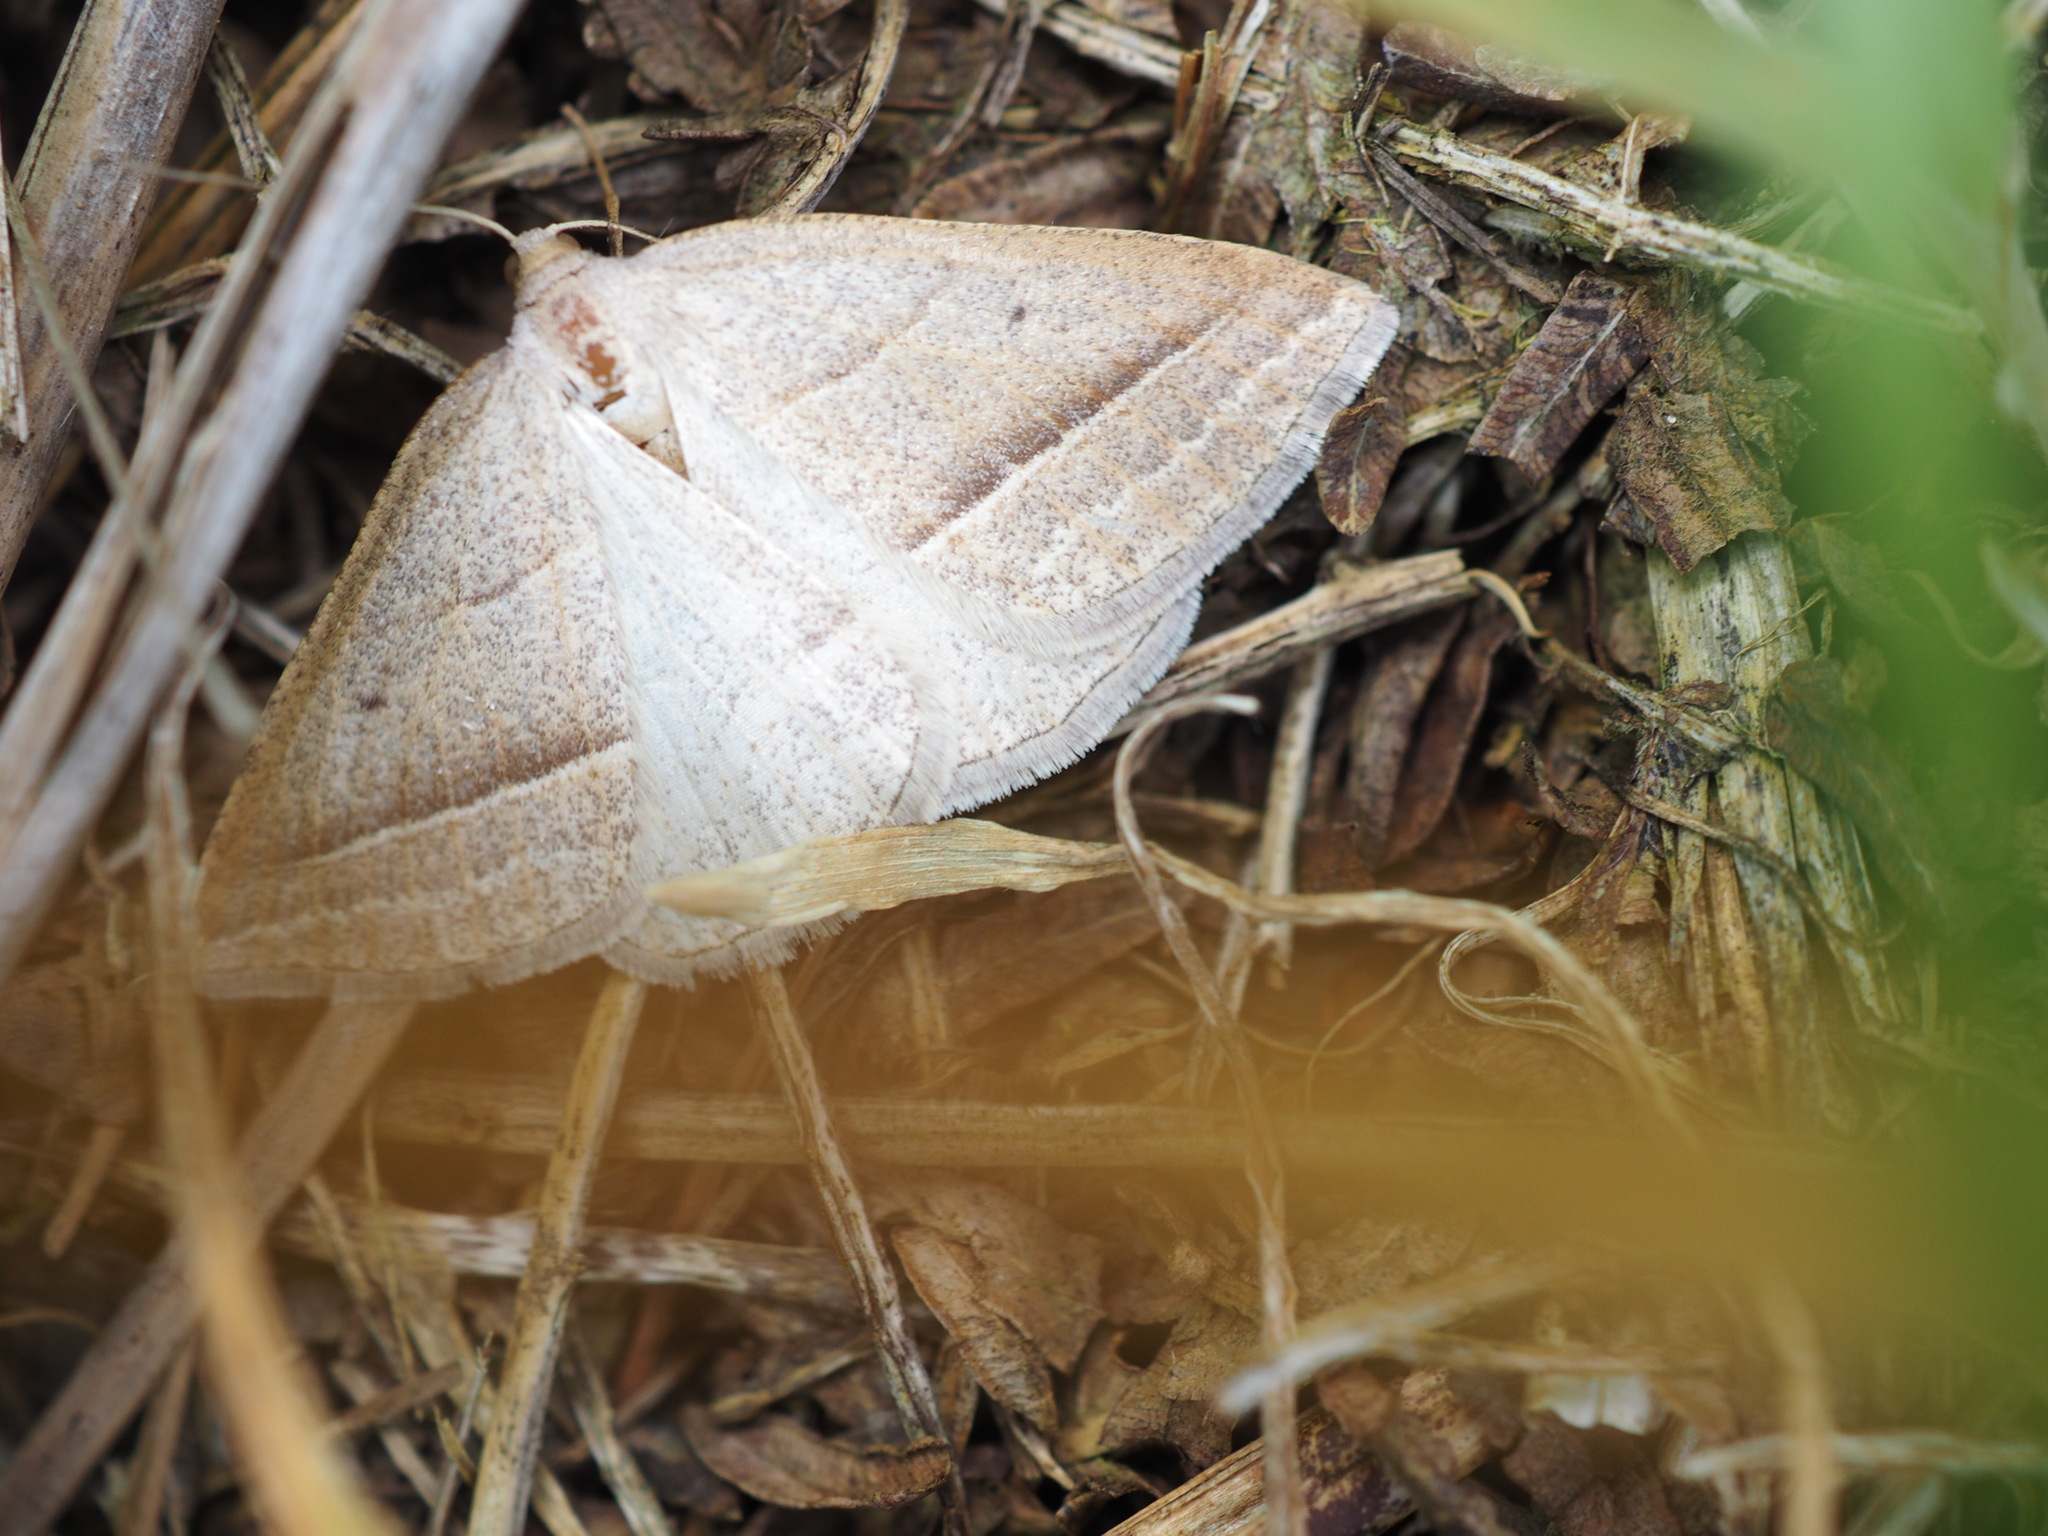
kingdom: Animalia
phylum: Arthropoda
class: Insecta
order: Lepidoptera
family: Pterophoridae
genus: Pterophorus
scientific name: Pterophorus Petrophora chlorosata
